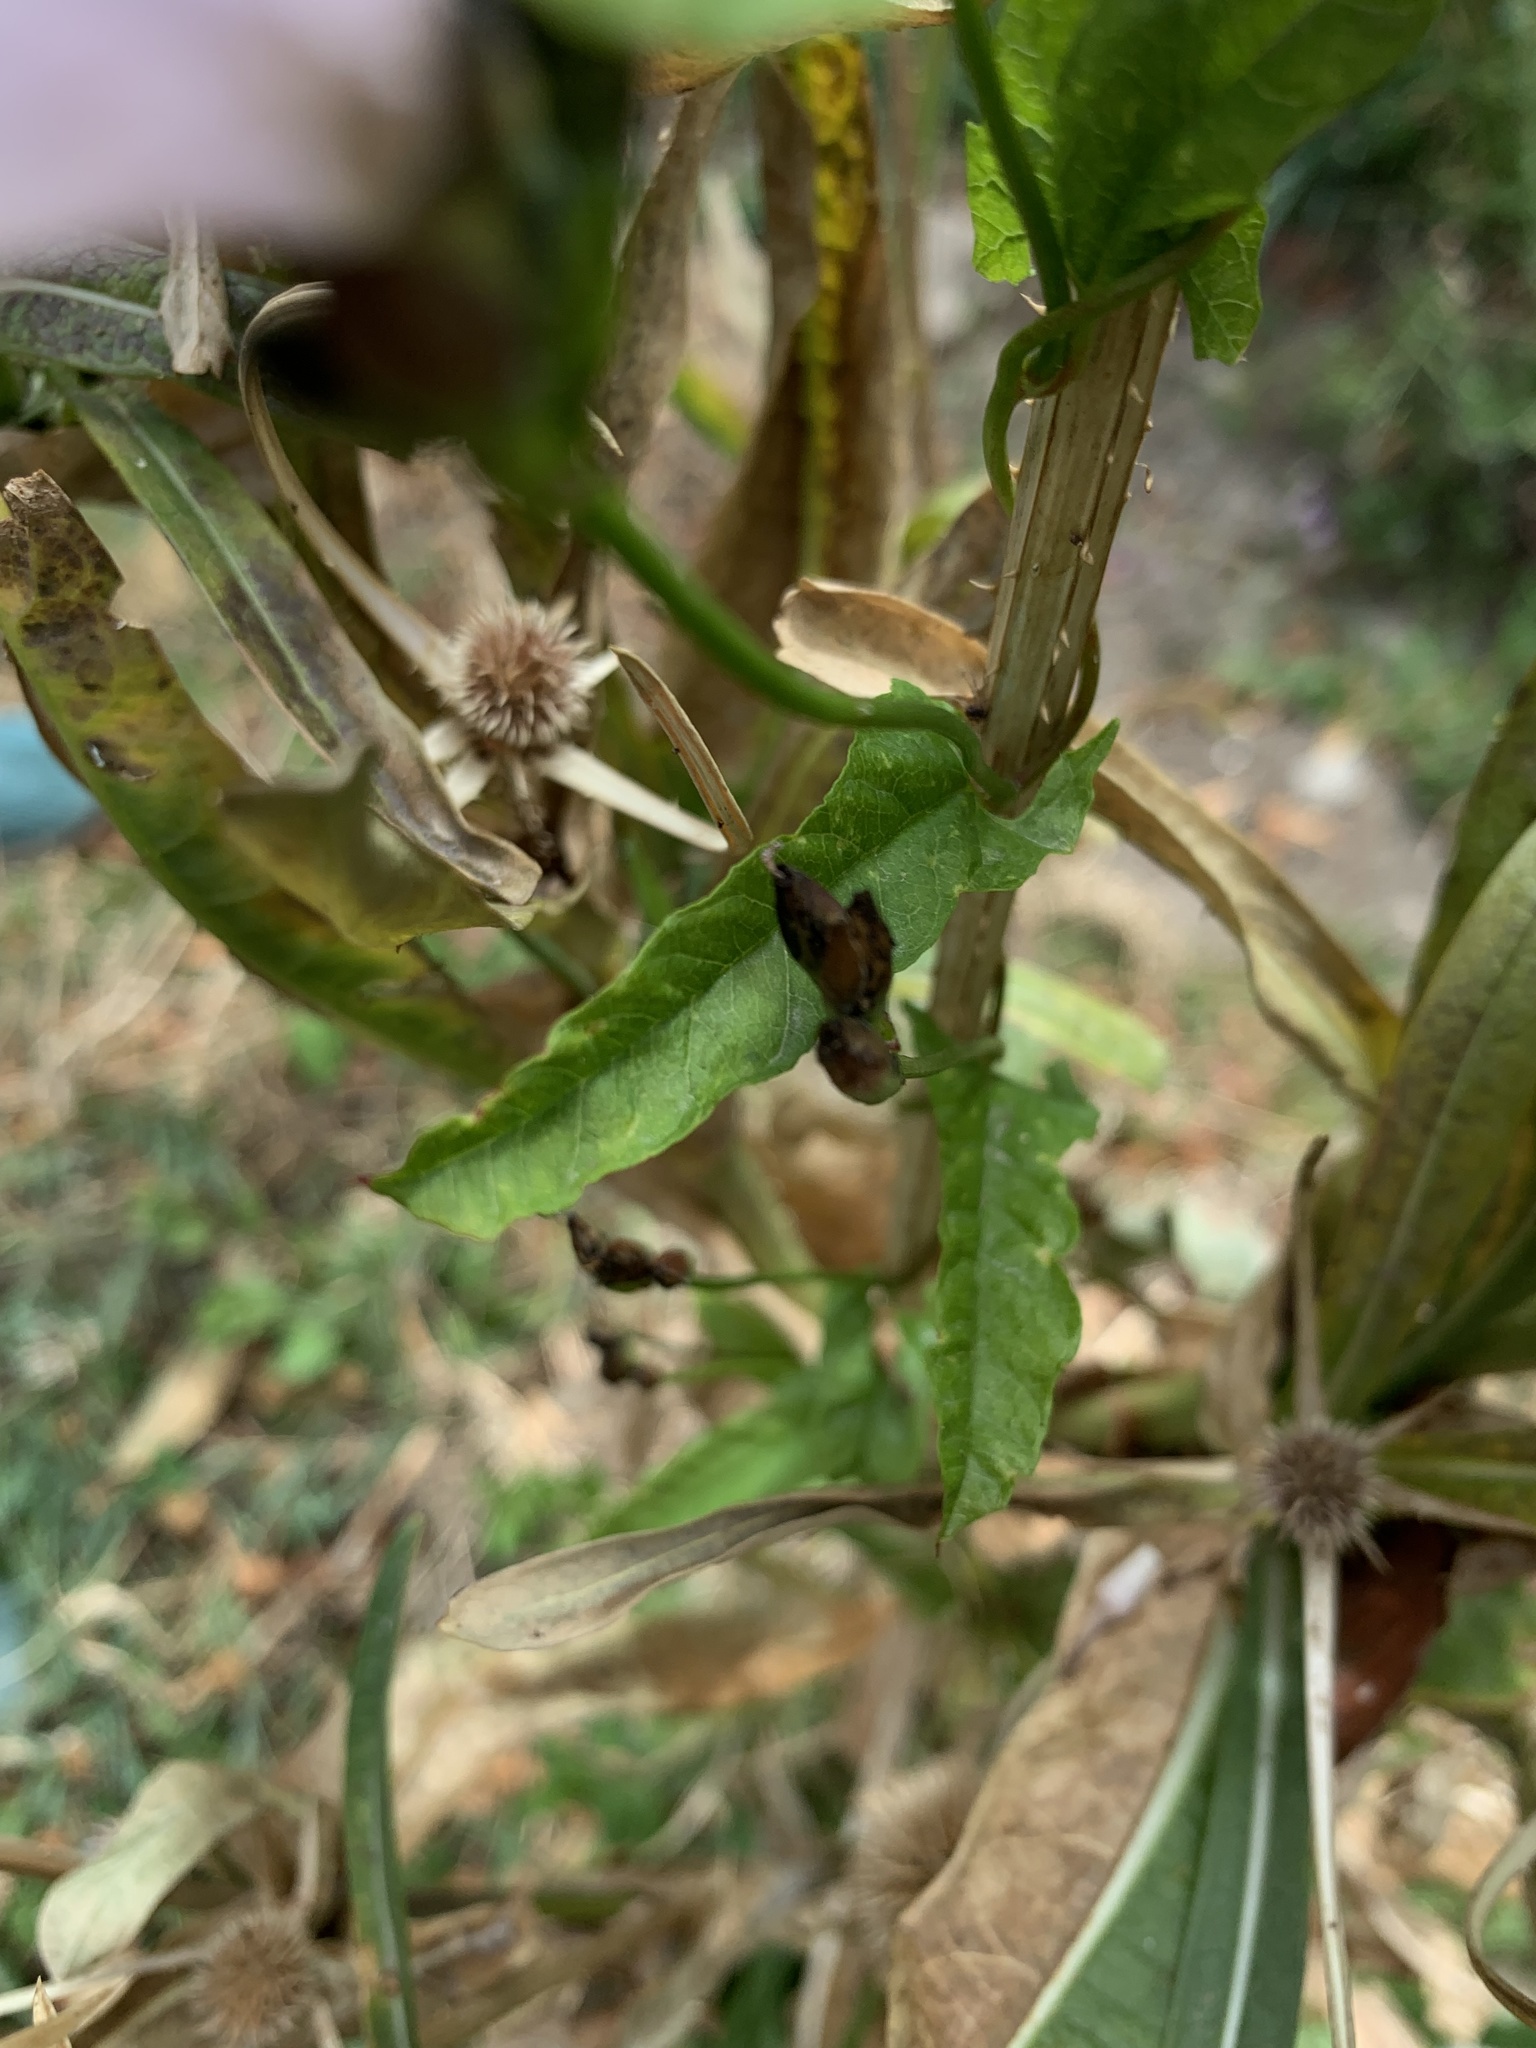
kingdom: Plantae
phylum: Tracheophyta
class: Magnoliopsida
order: Solanales
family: Convolvulaceae
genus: Convolvulus
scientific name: Convolvulus crenatifolius
